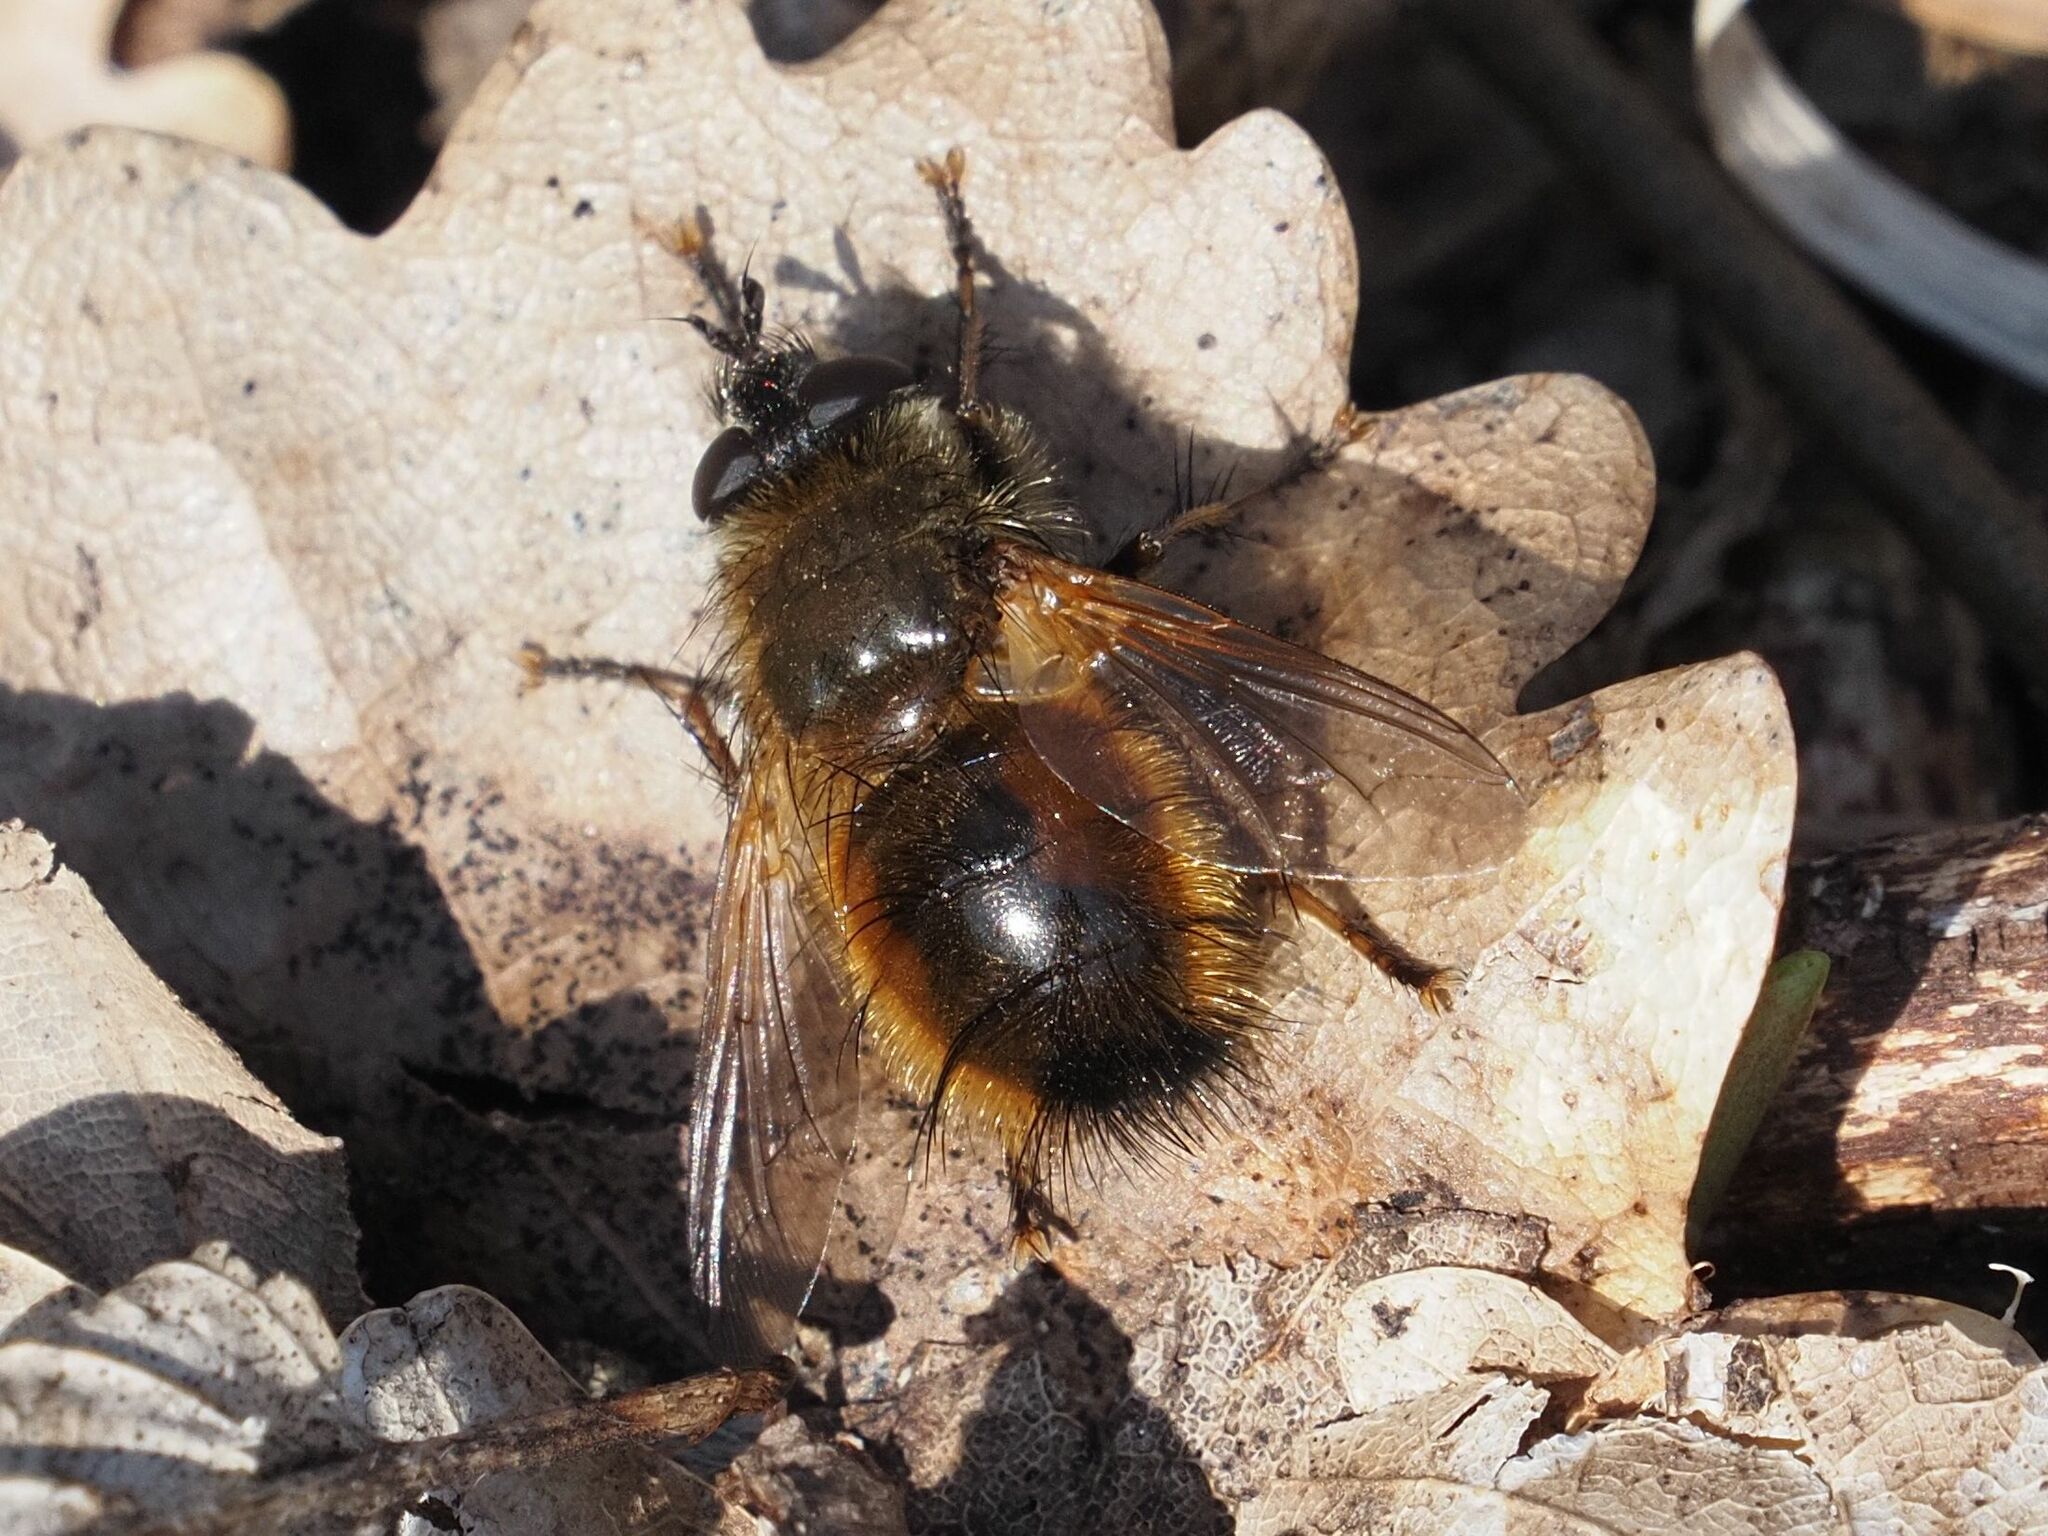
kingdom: Animalia
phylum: Arthropoda
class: Insecta
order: Diptera
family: Tachinidae
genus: Tachina
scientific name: Tachina lurida
